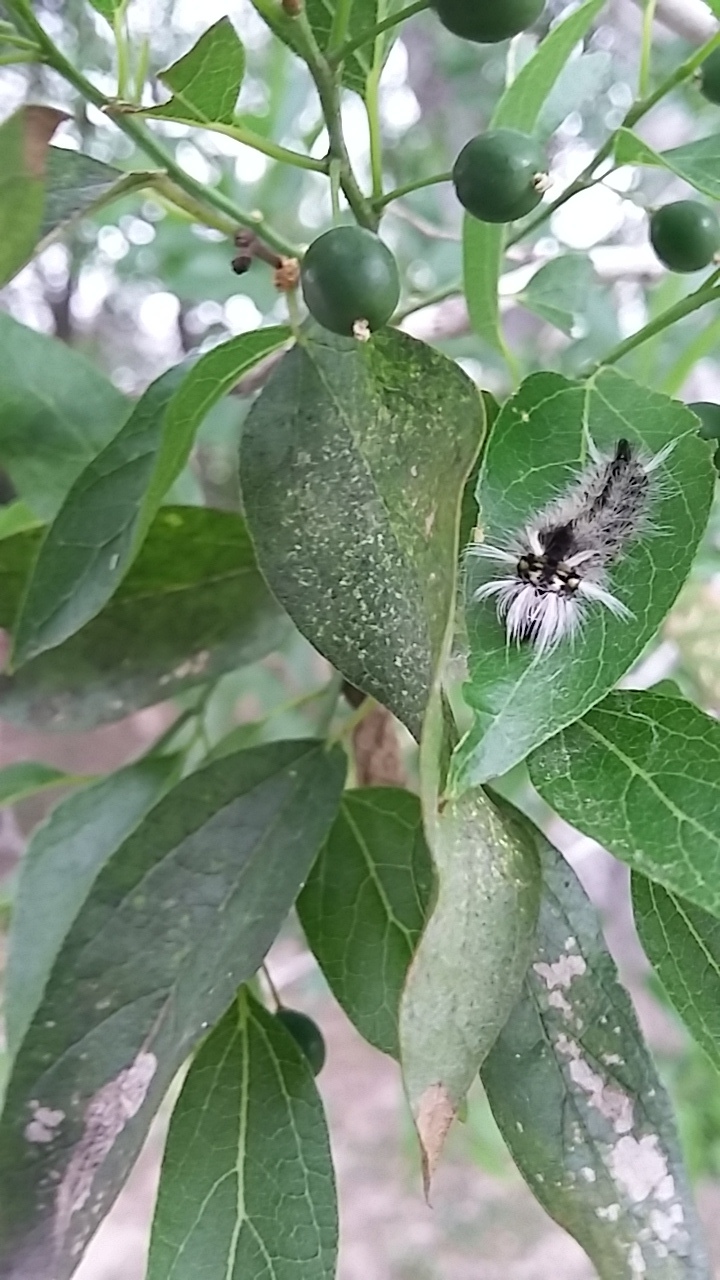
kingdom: Animalia
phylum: Arthropoda
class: Insecta
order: Lepidoptera
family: Erebidae
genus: Halysidota
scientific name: Halysidota schausi
